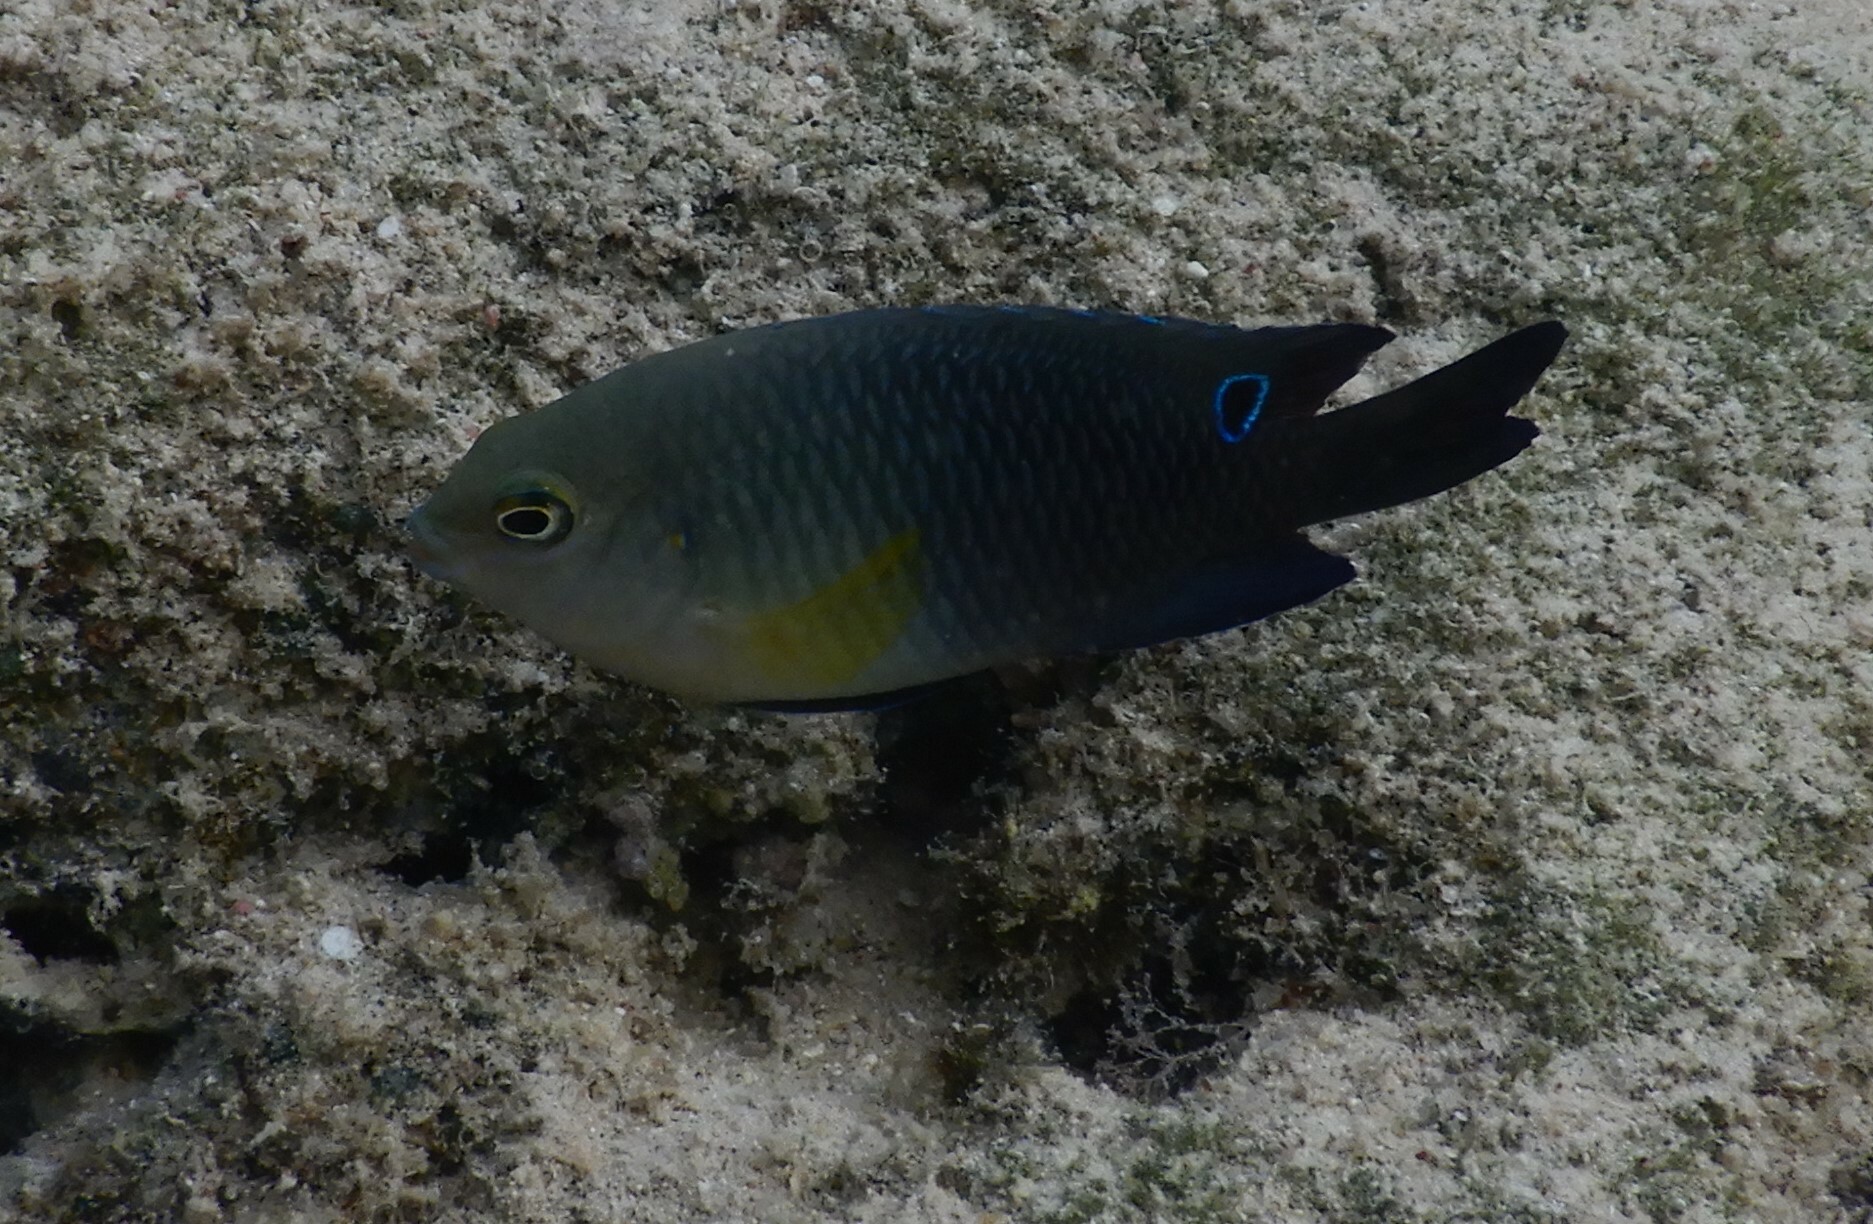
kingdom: Animalia
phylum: Chordata
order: Perciformes
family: Pomacentridae
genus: Chrysiptera
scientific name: Chrysiptera unimaculata
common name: Onespot demoiselle
